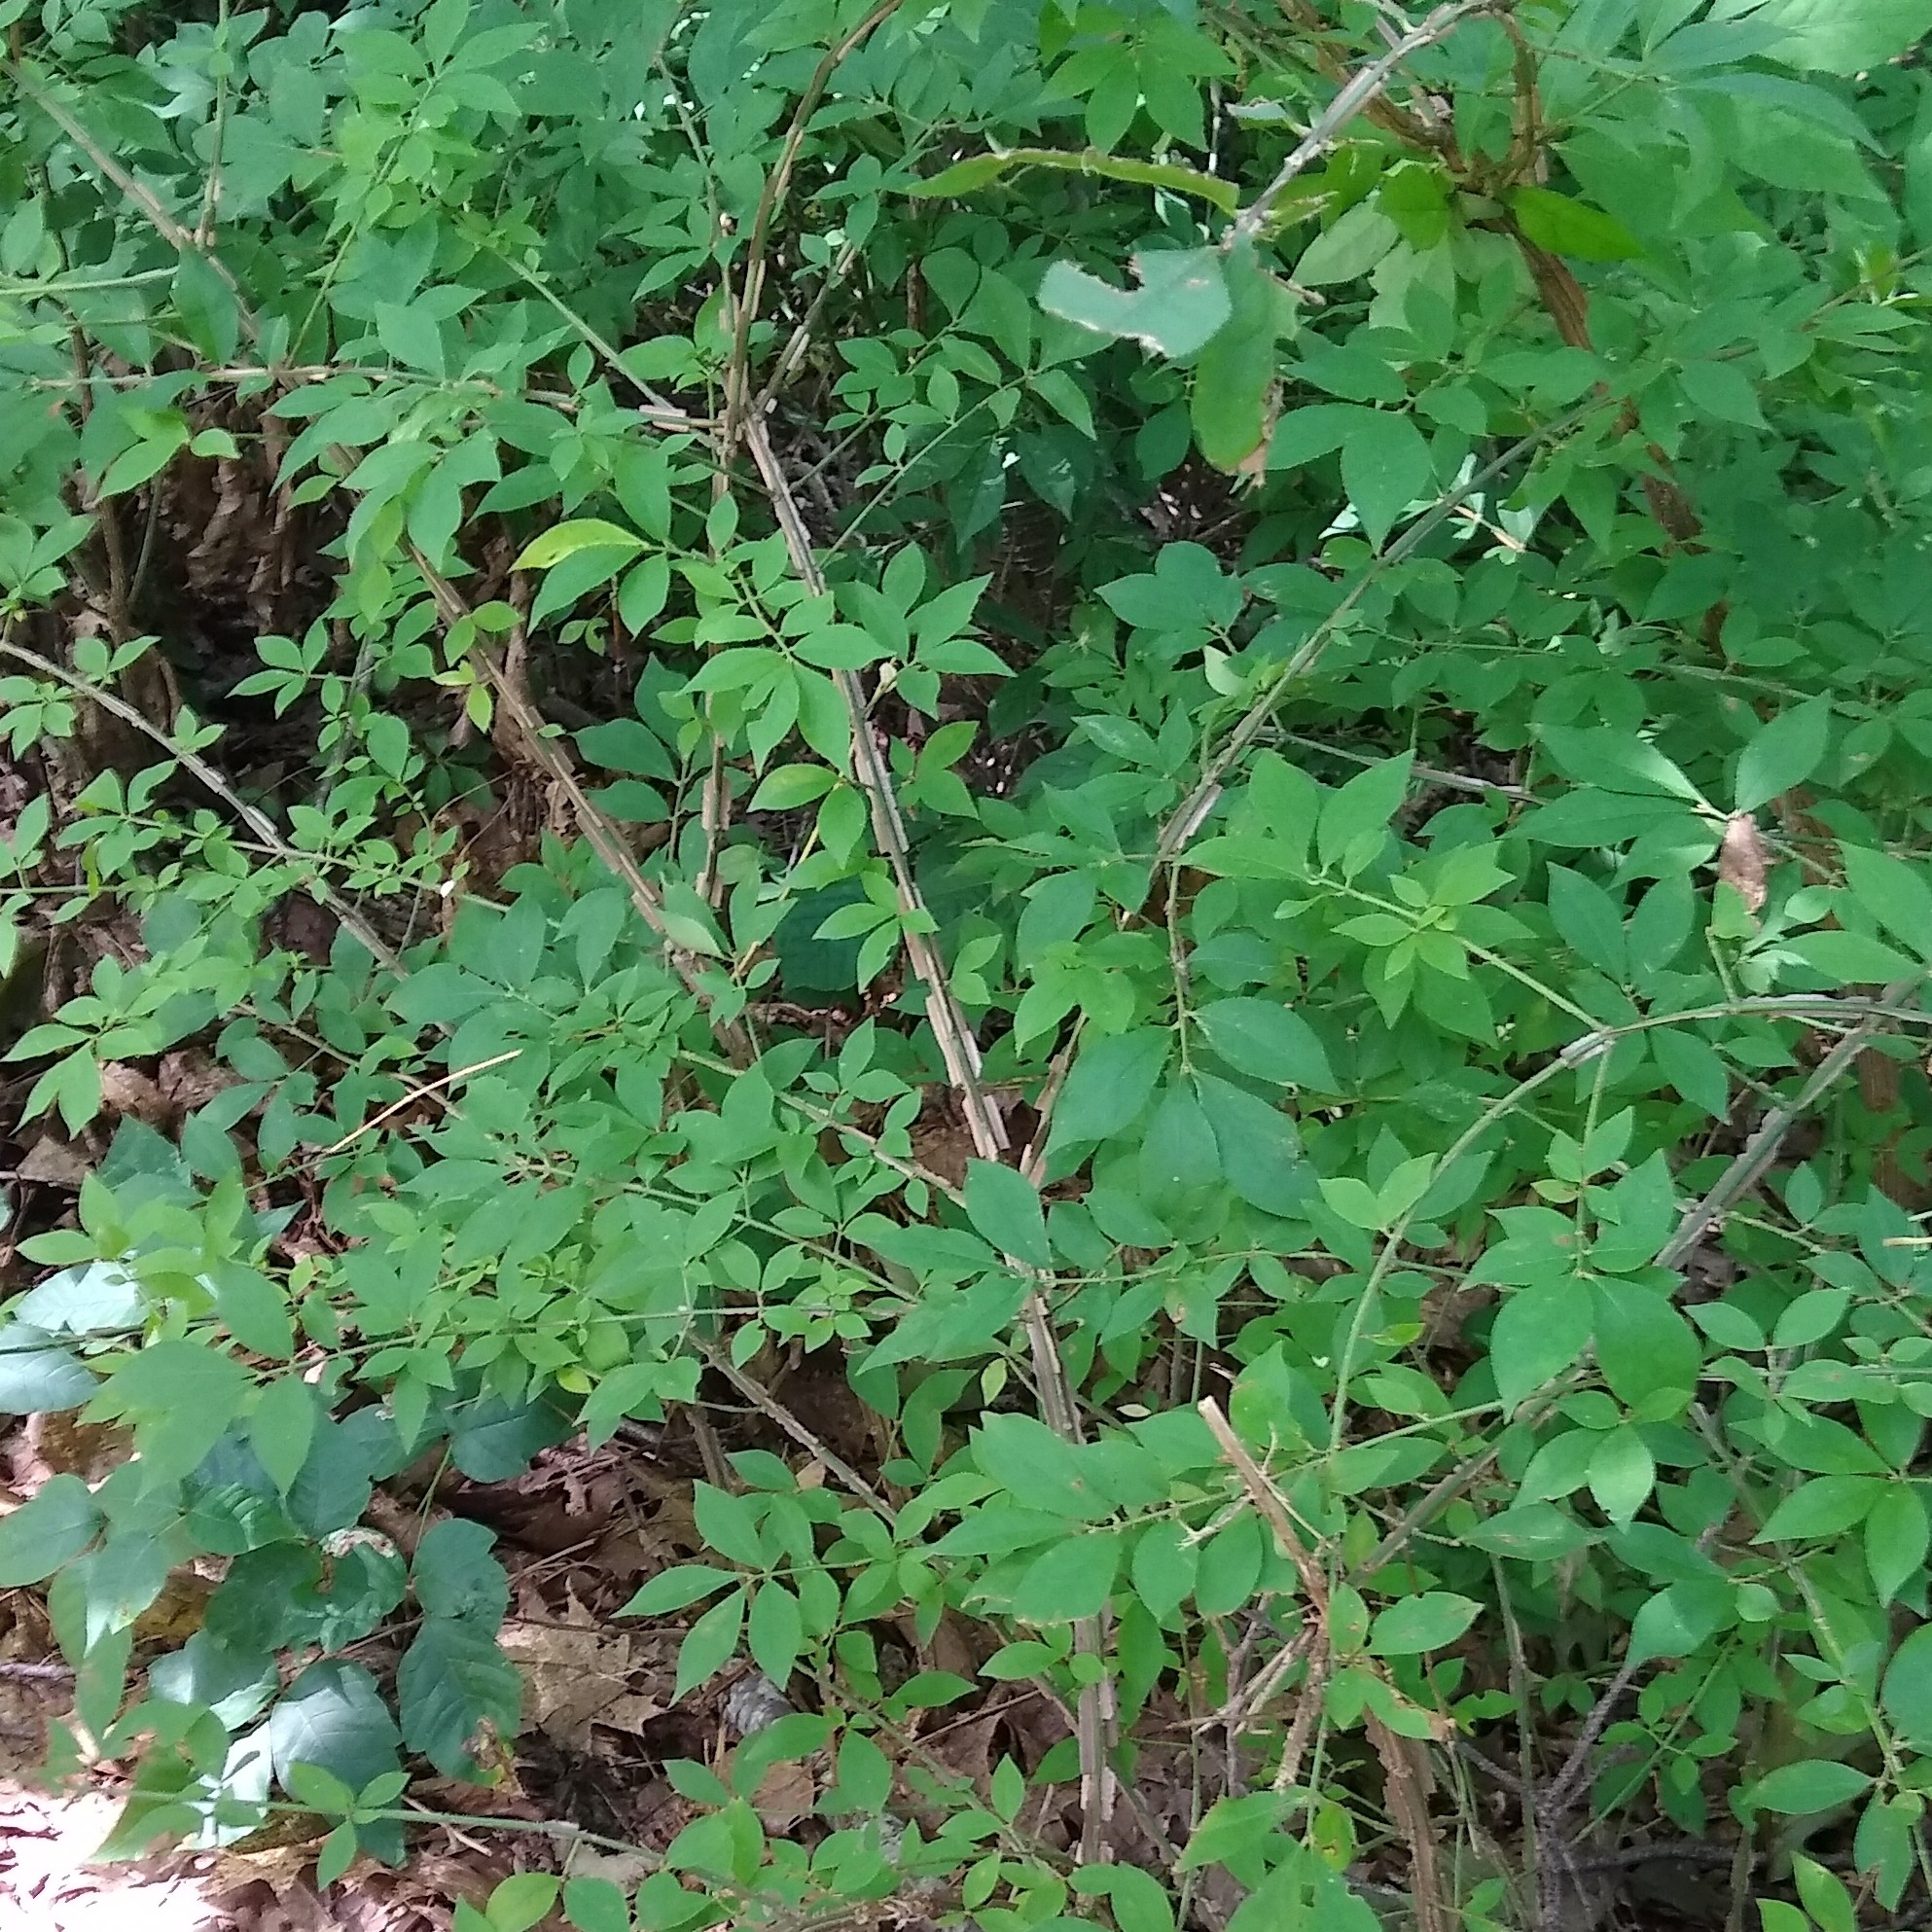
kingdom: Plantae
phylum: Tracheophyta
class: Magnoliopsida
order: Celastrales
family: Celastraceae
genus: Euonymus
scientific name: Euonymus alatus
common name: Winged euonymus
